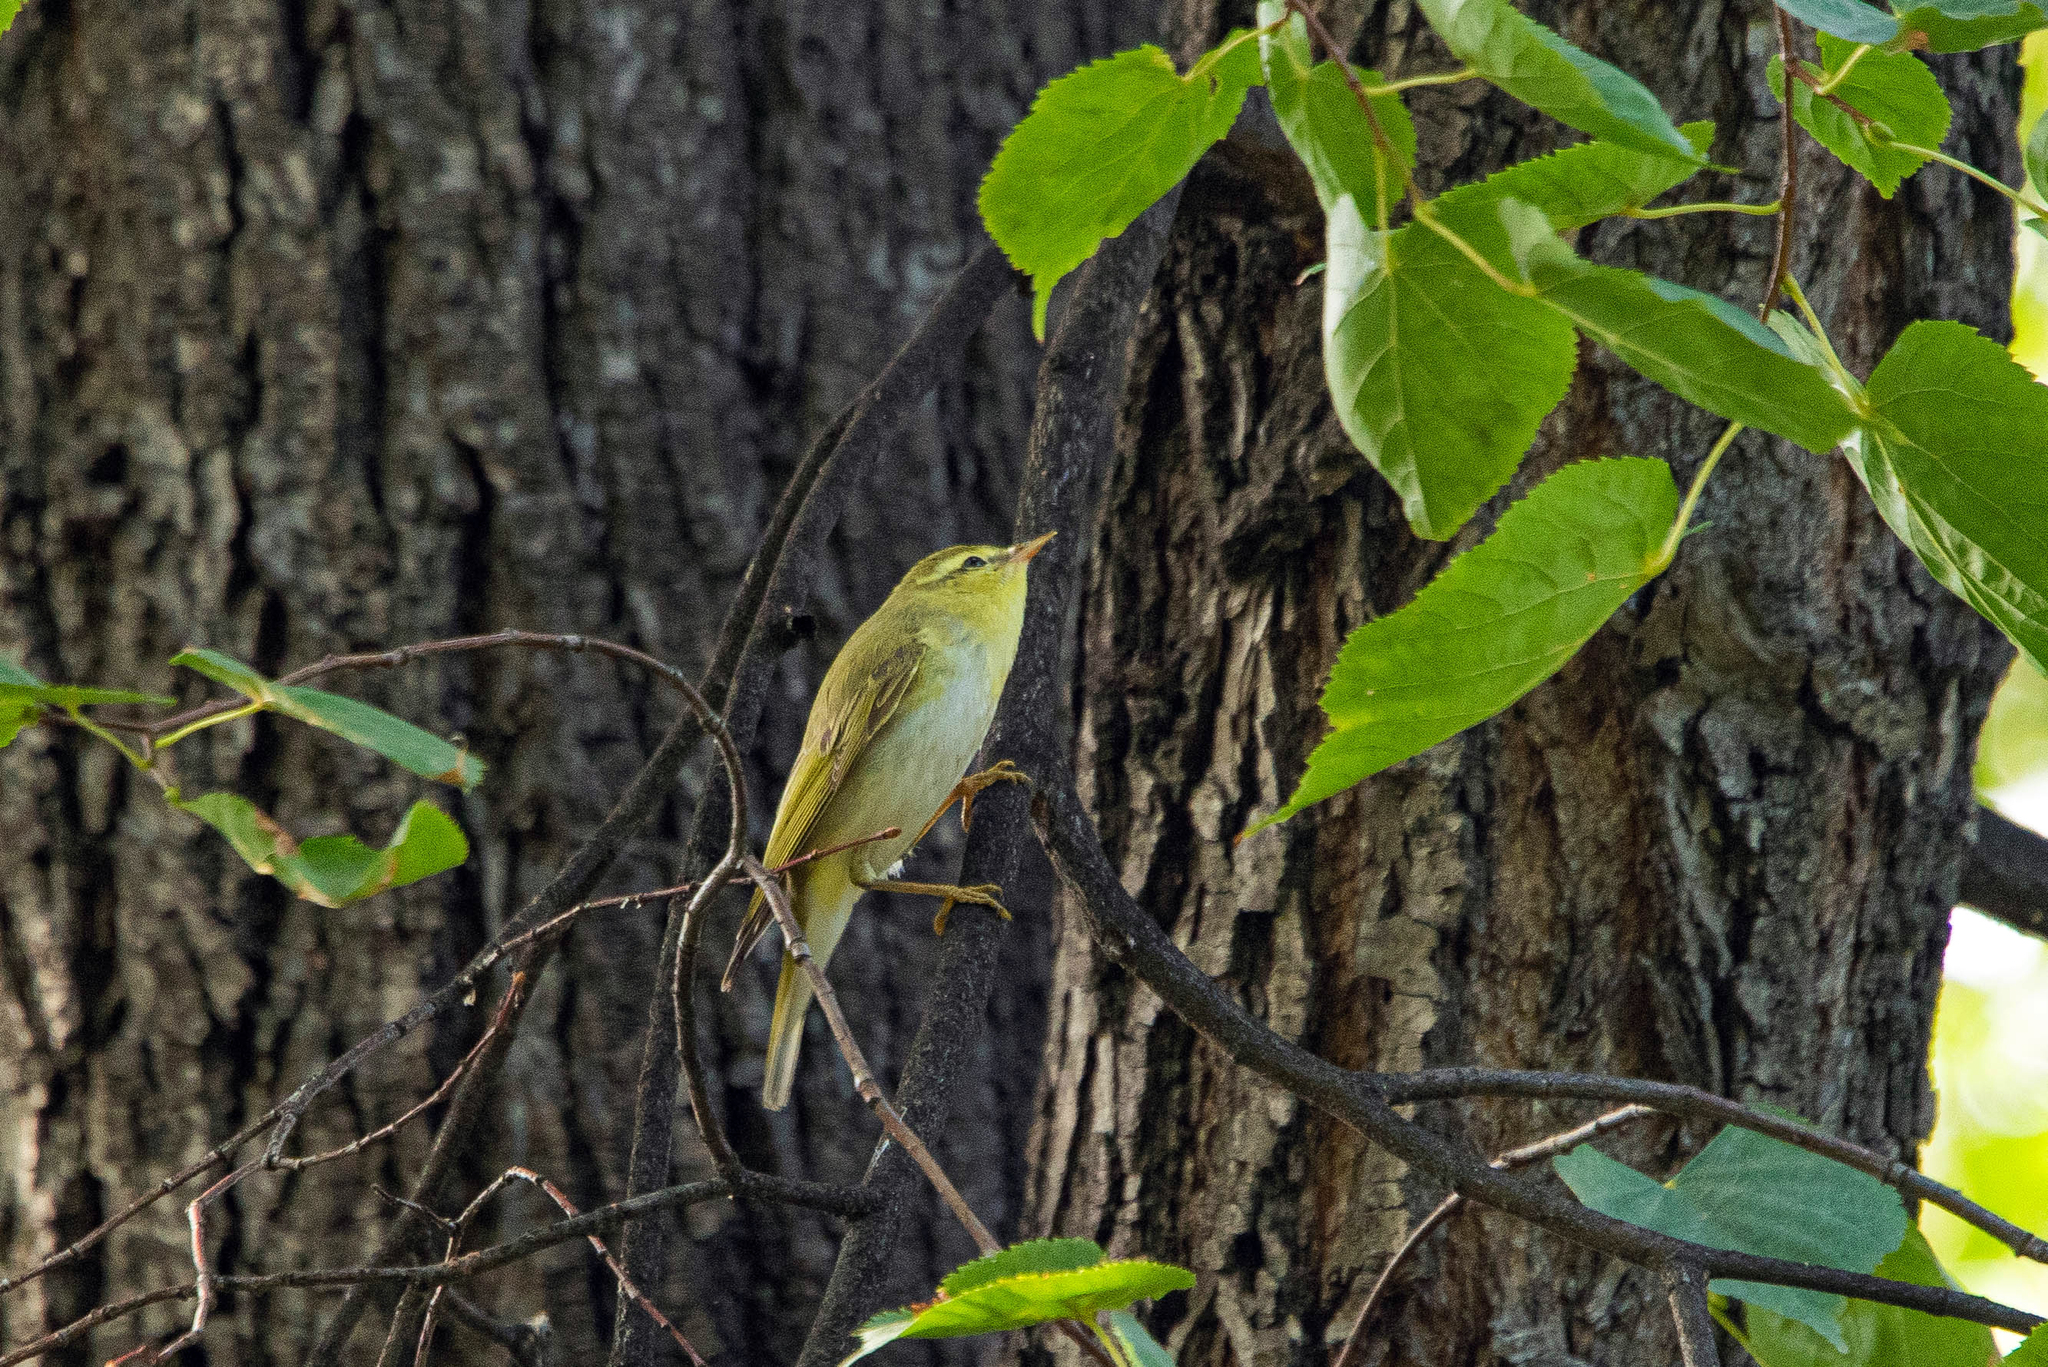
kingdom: Animalia
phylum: Chordata
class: Aves
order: Passeriformes
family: Phylloscopidae
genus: Phylloscopus
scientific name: Phylloscopus sibillatrix
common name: Wood warbler
